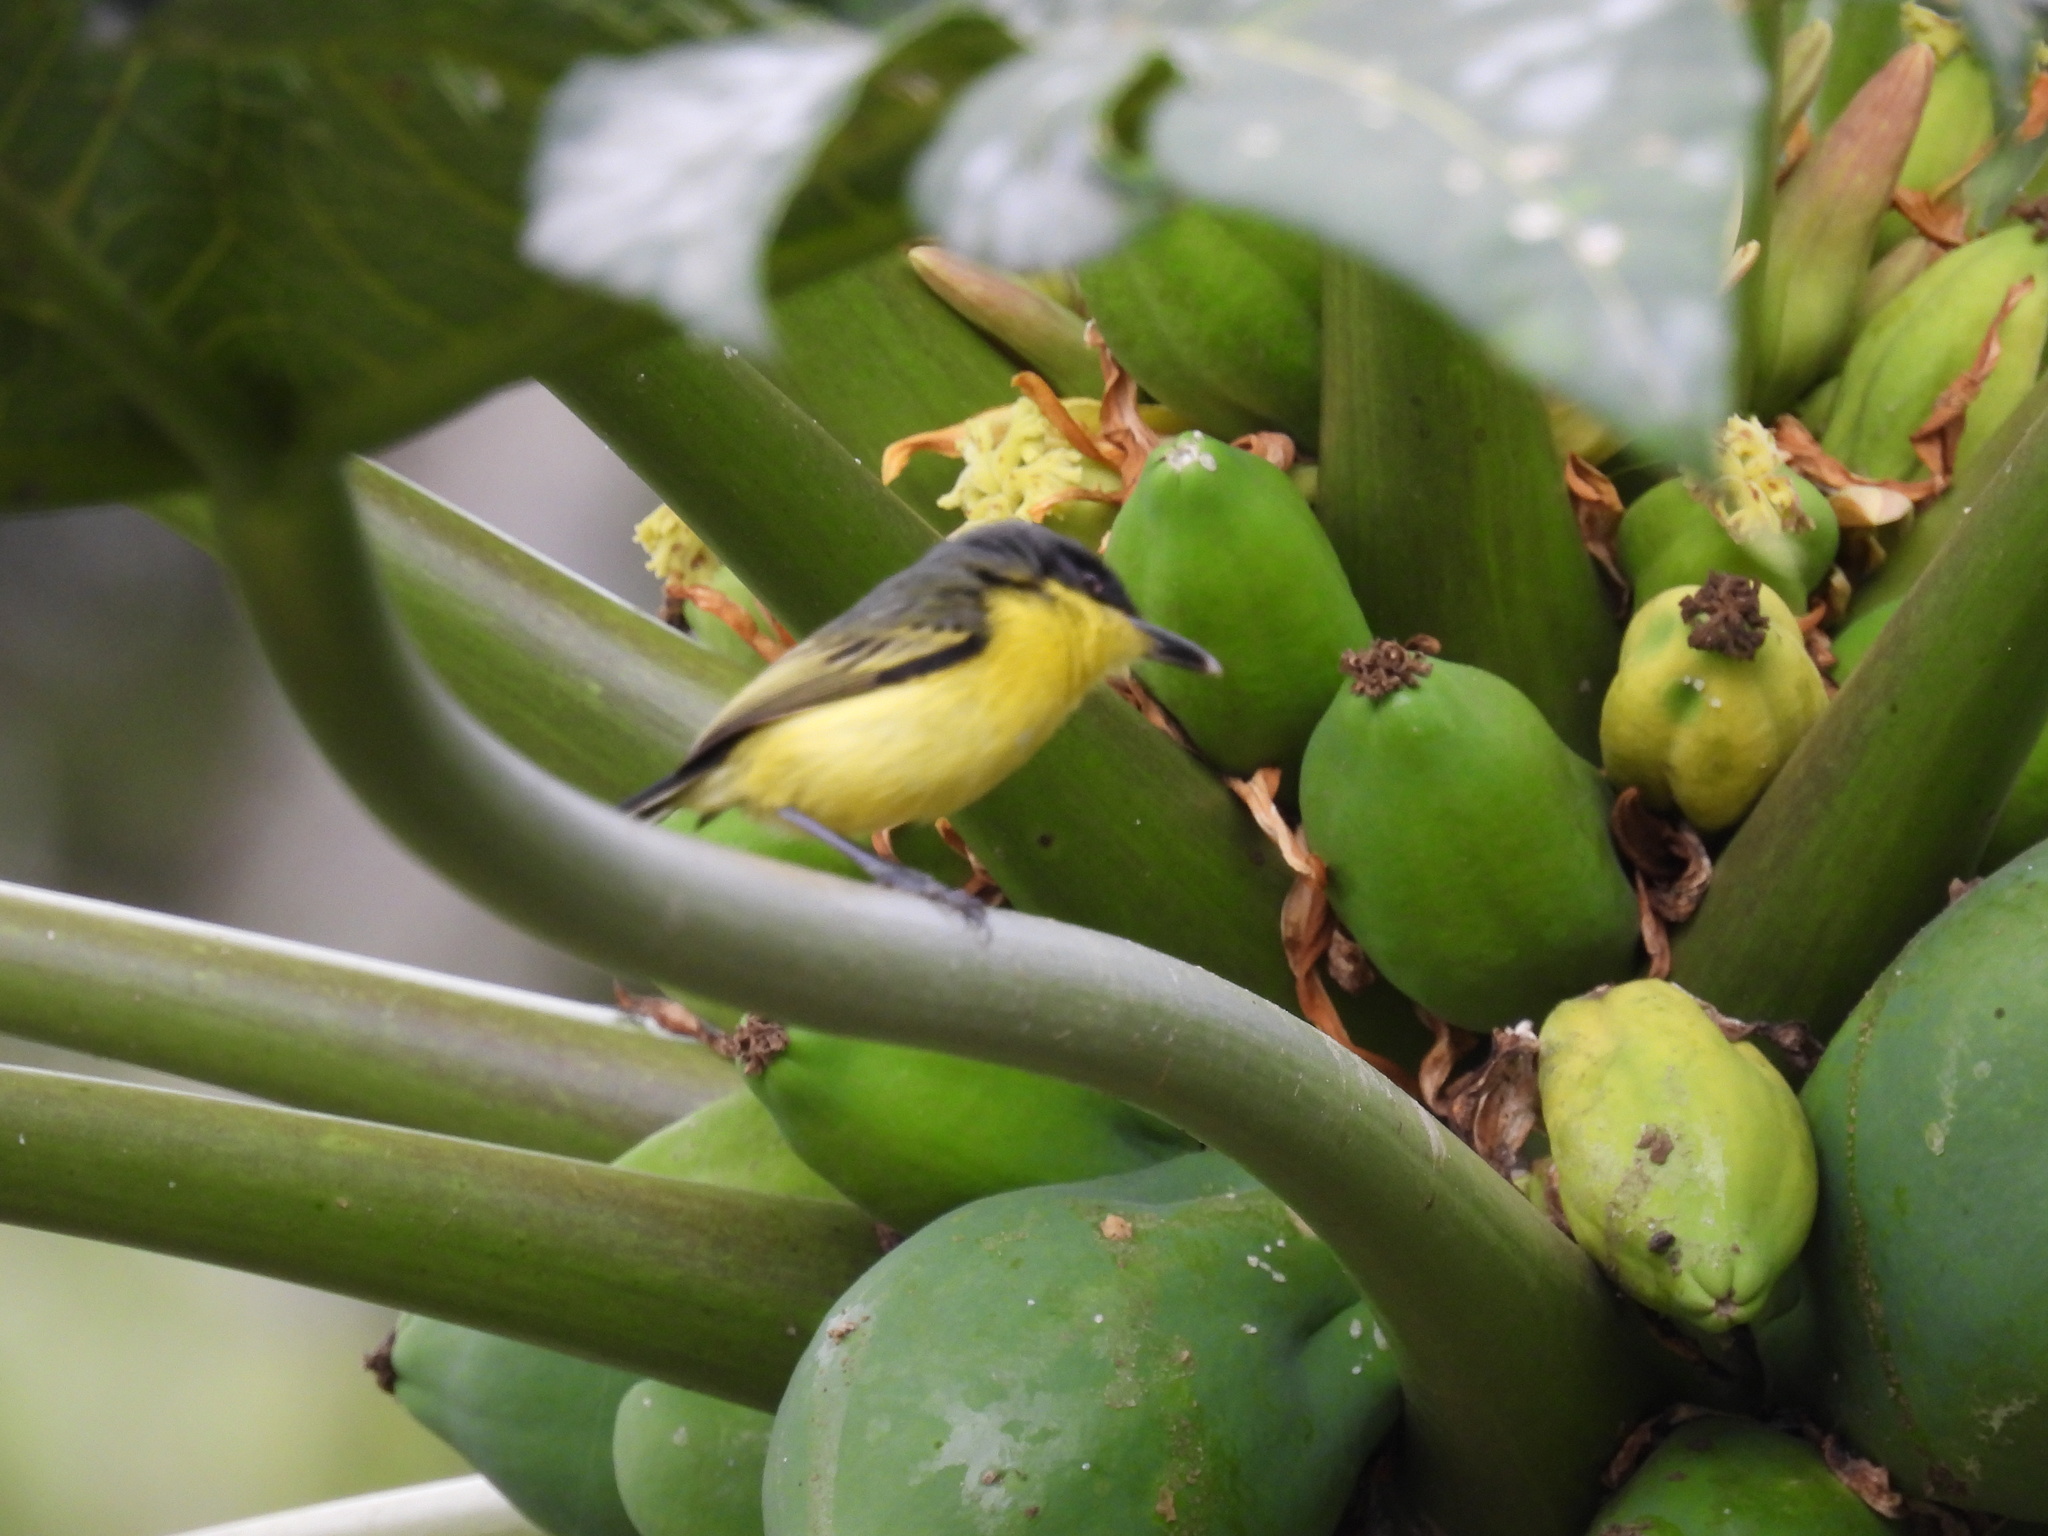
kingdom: Animalia
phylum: Chordata
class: Aves
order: Passeriformes
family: Tyrannidae
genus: Todirostrum
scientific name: Todirostrum cinereum
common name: Common tody-flycatcher
